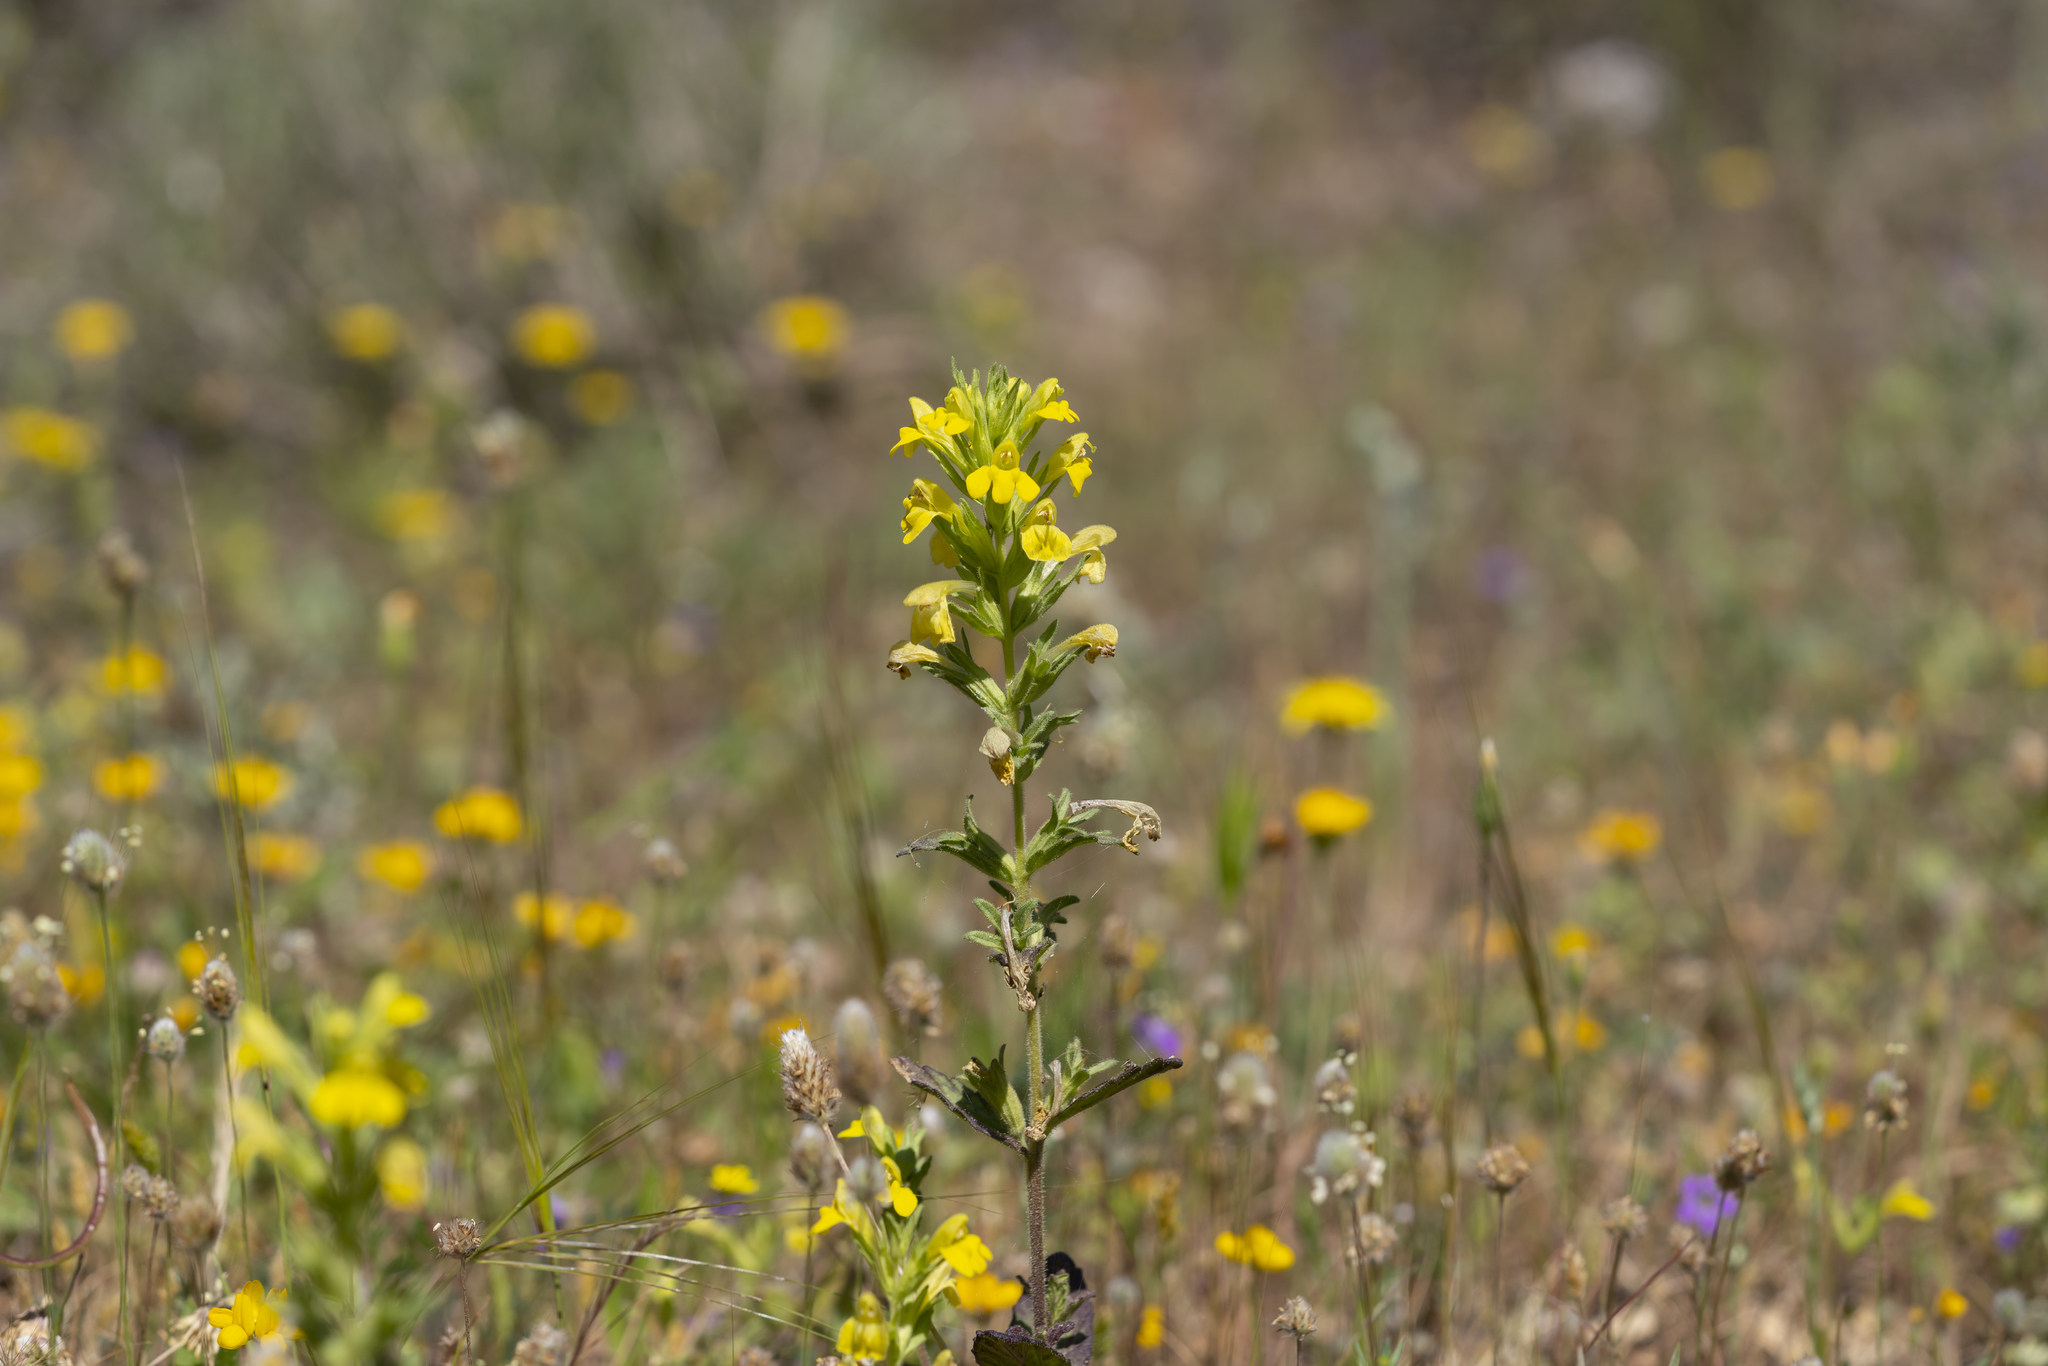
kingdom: Plantae
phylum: Tracheophyta
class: Magnoliopsida
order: Lamiales
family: Orobanchaceae
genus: Bellardia
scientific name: Bellardia viscosa
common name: Sticky parentucellia
